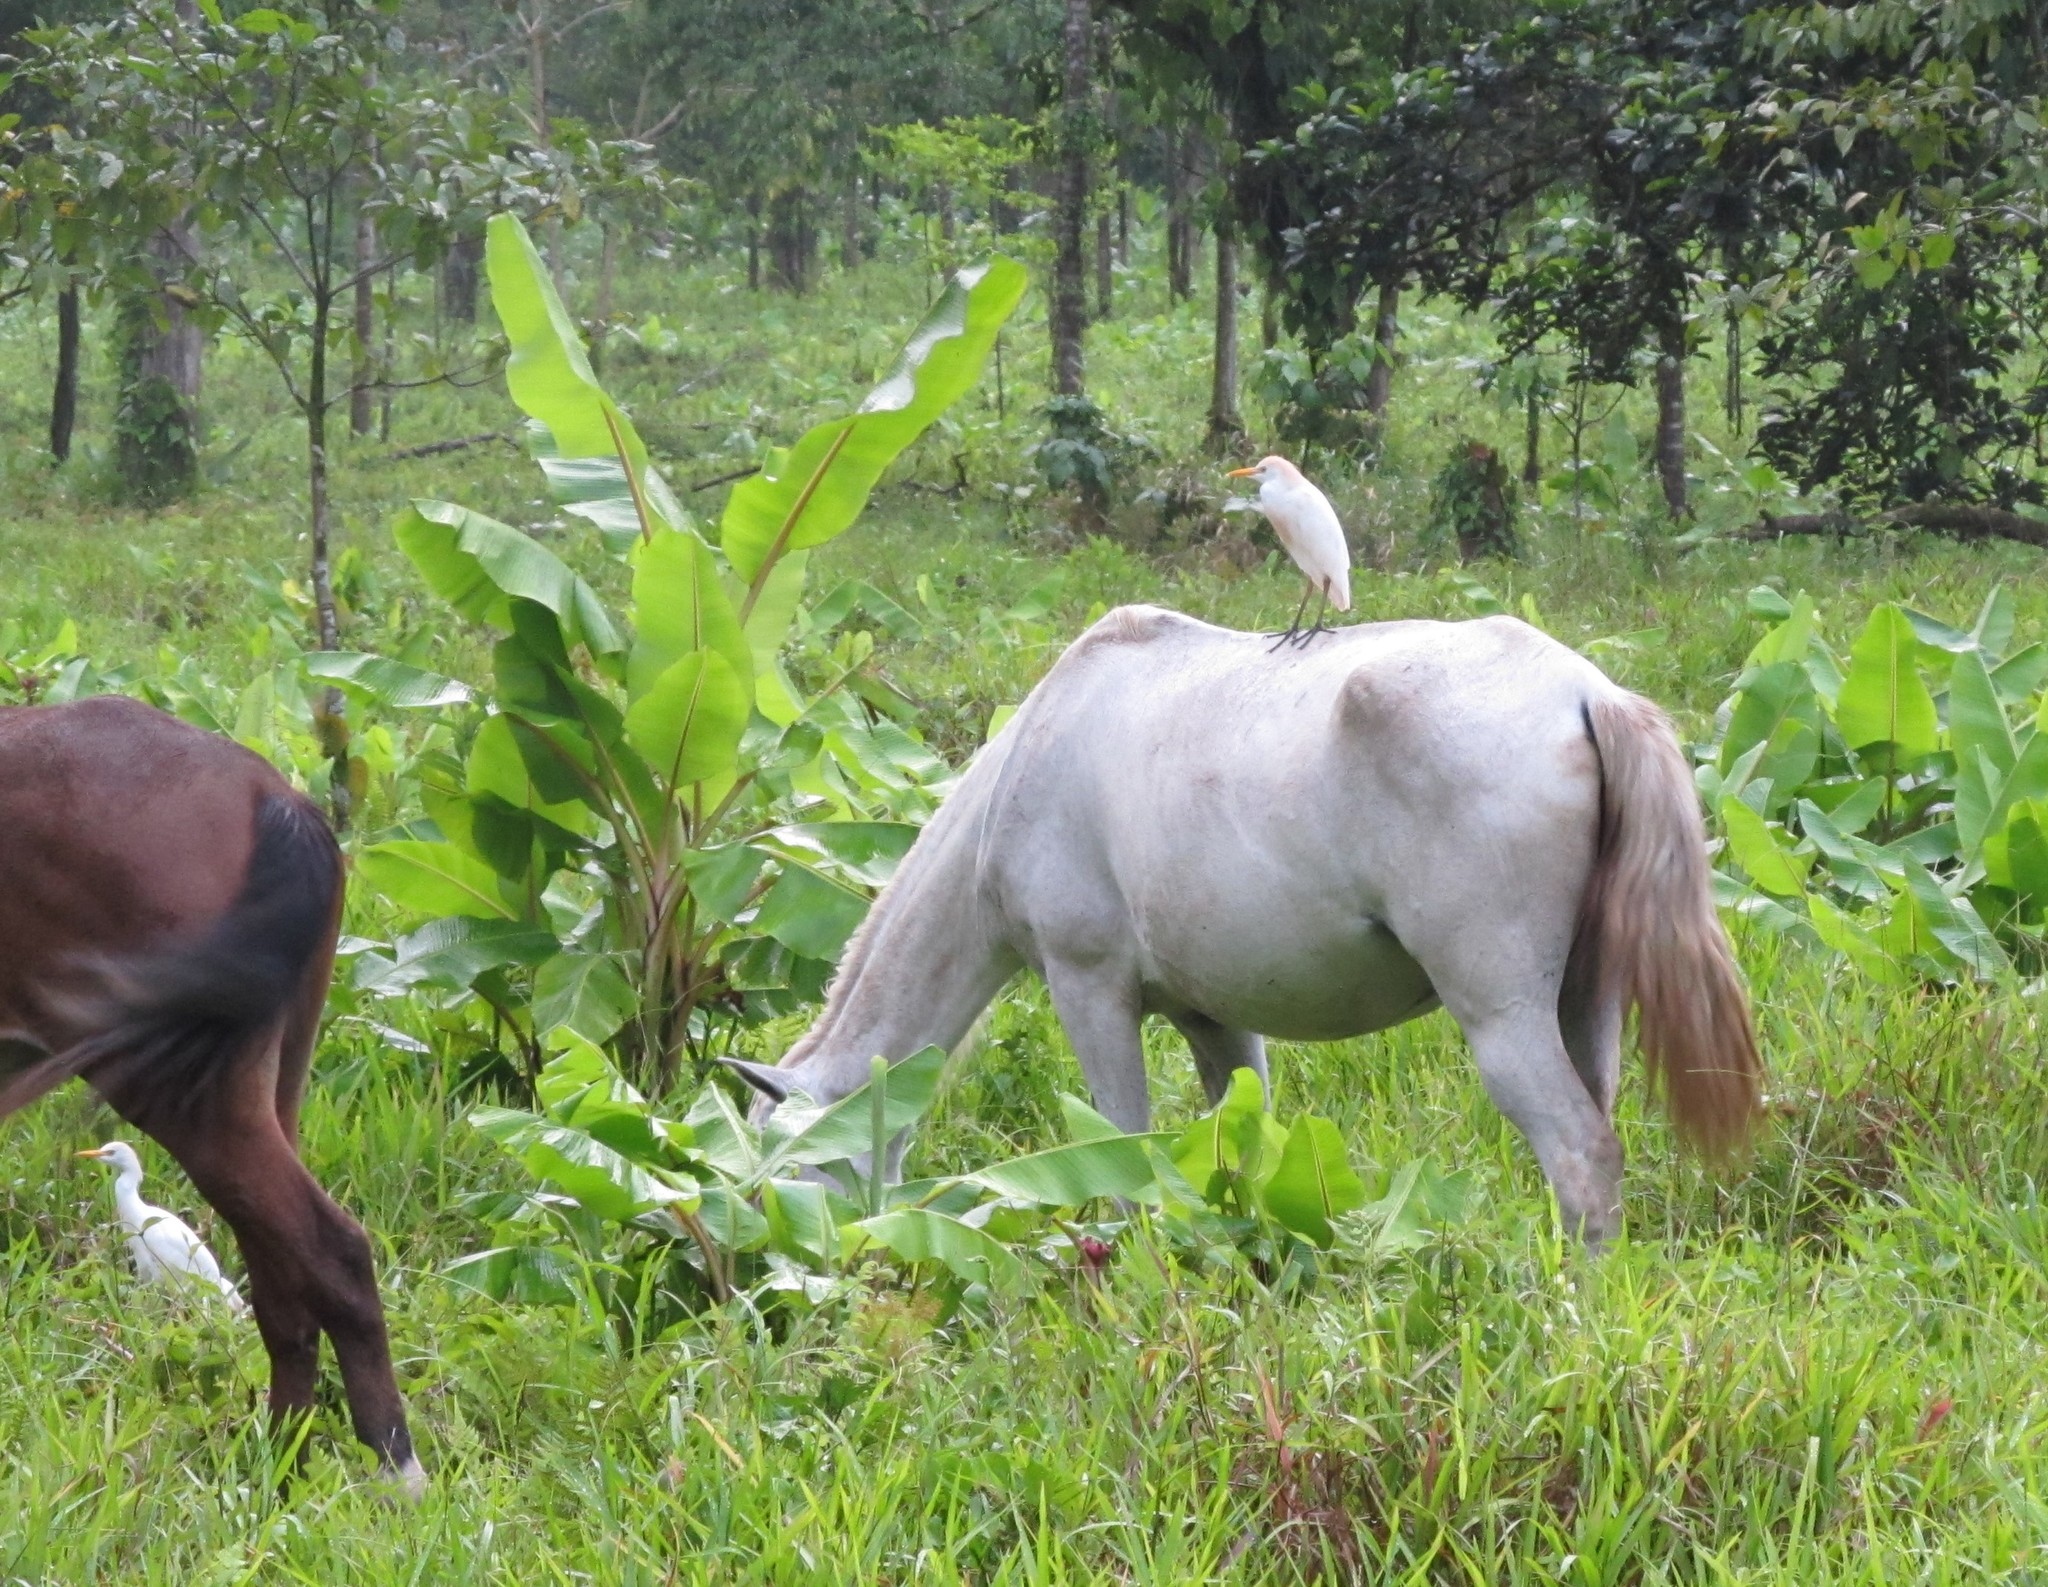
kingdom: Animalia
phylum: Chordata
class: Aves
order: Pelecaniformes
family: Ardeidae
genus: Bubulcus
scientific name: Bubulcus ibis
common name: Cattle egret
